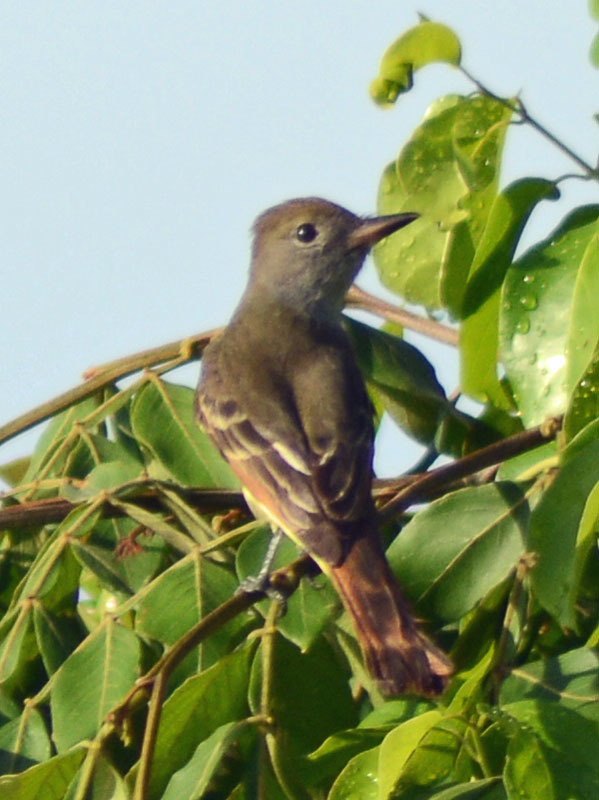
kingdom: Animalia
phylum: Chordata
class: Aves
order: Passeriformes
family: Tyrannidae
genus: Myiarchus
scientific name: Myiarchus crinitus
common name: Great crested flycatcher
